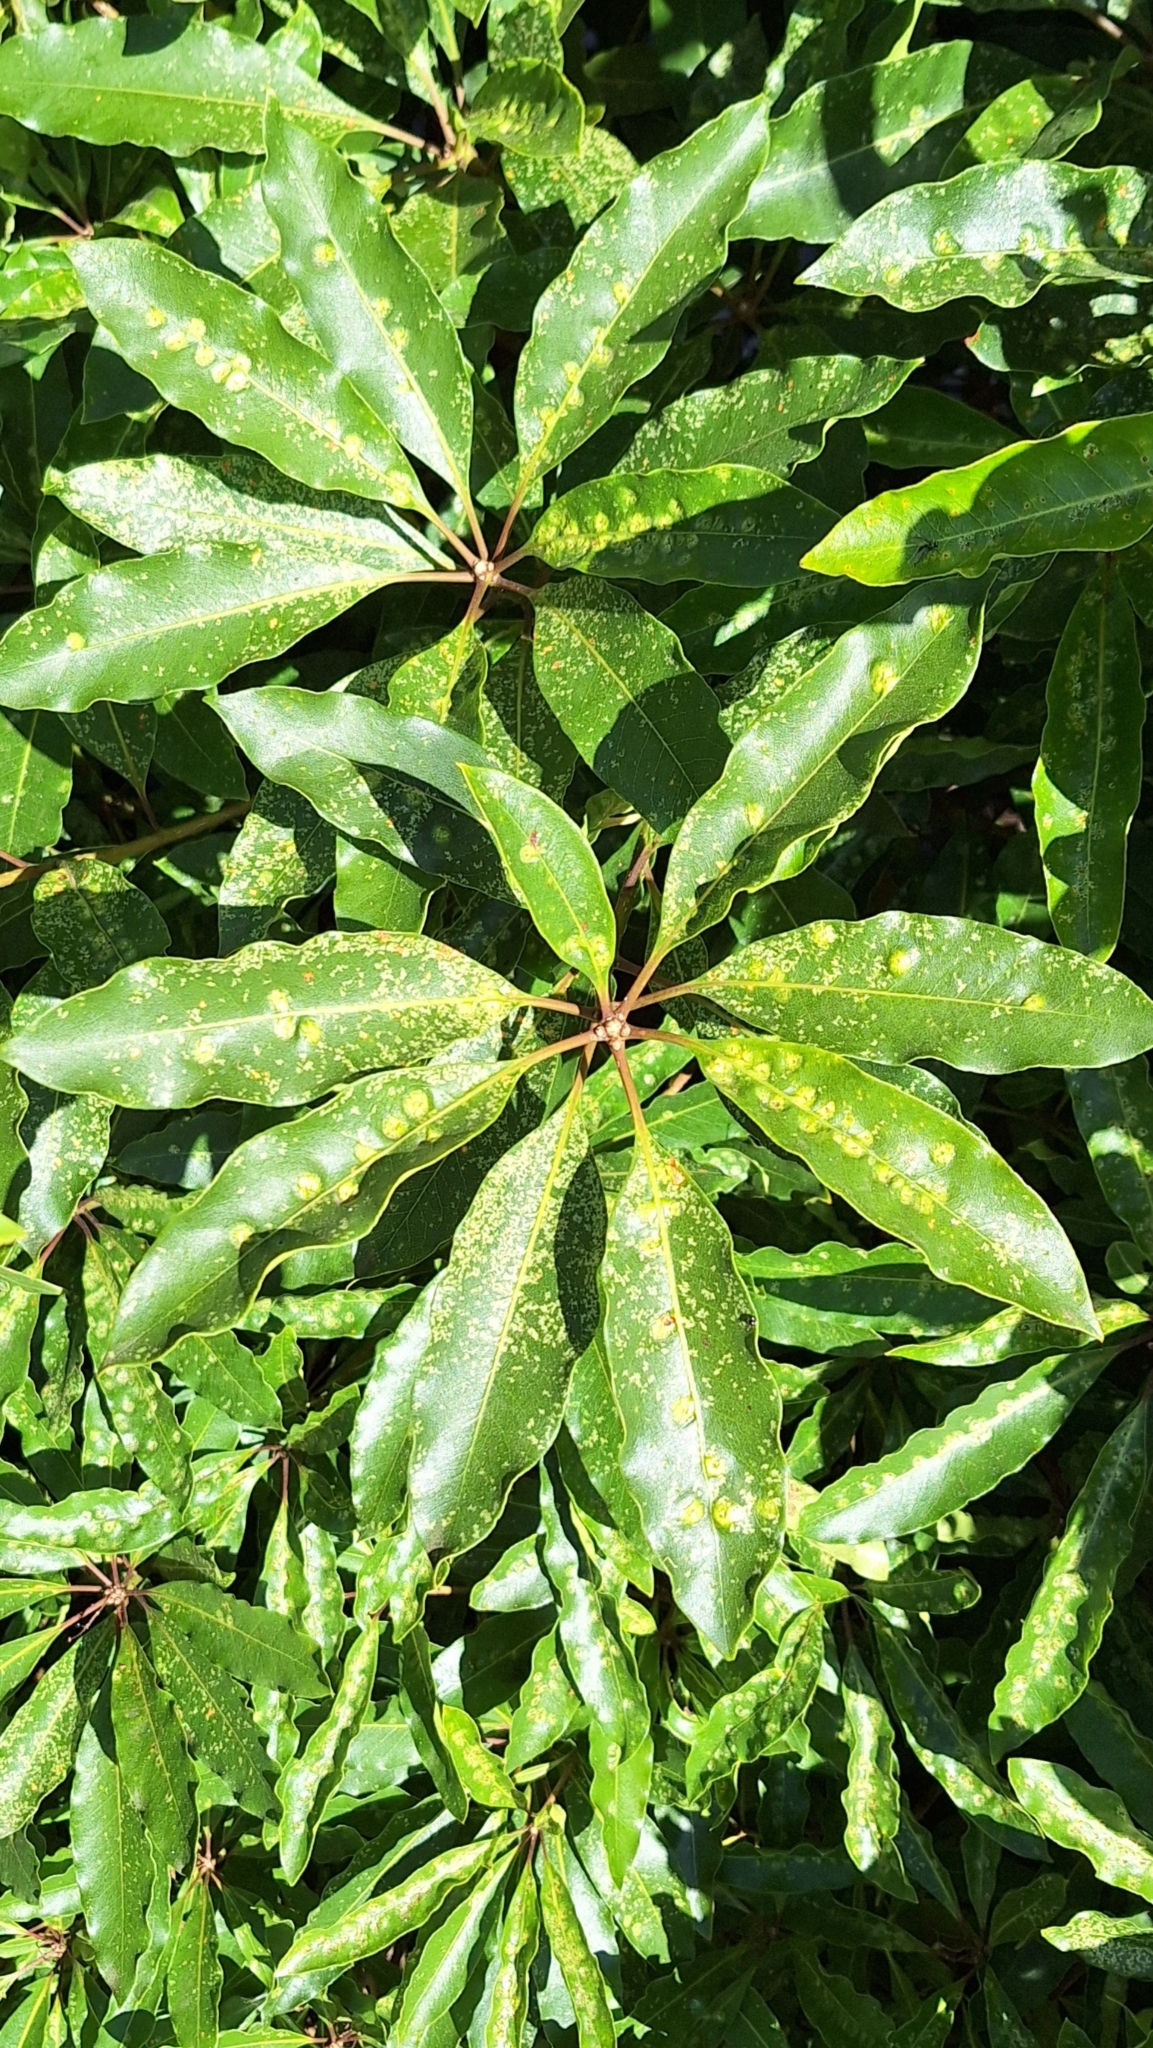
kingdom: Animalia
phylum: Arthropoda
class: Insecta
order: Diptera
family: Agromyzidae
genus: Phytoliriomyza
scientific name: Phytoliriomyza pittosporophylli
